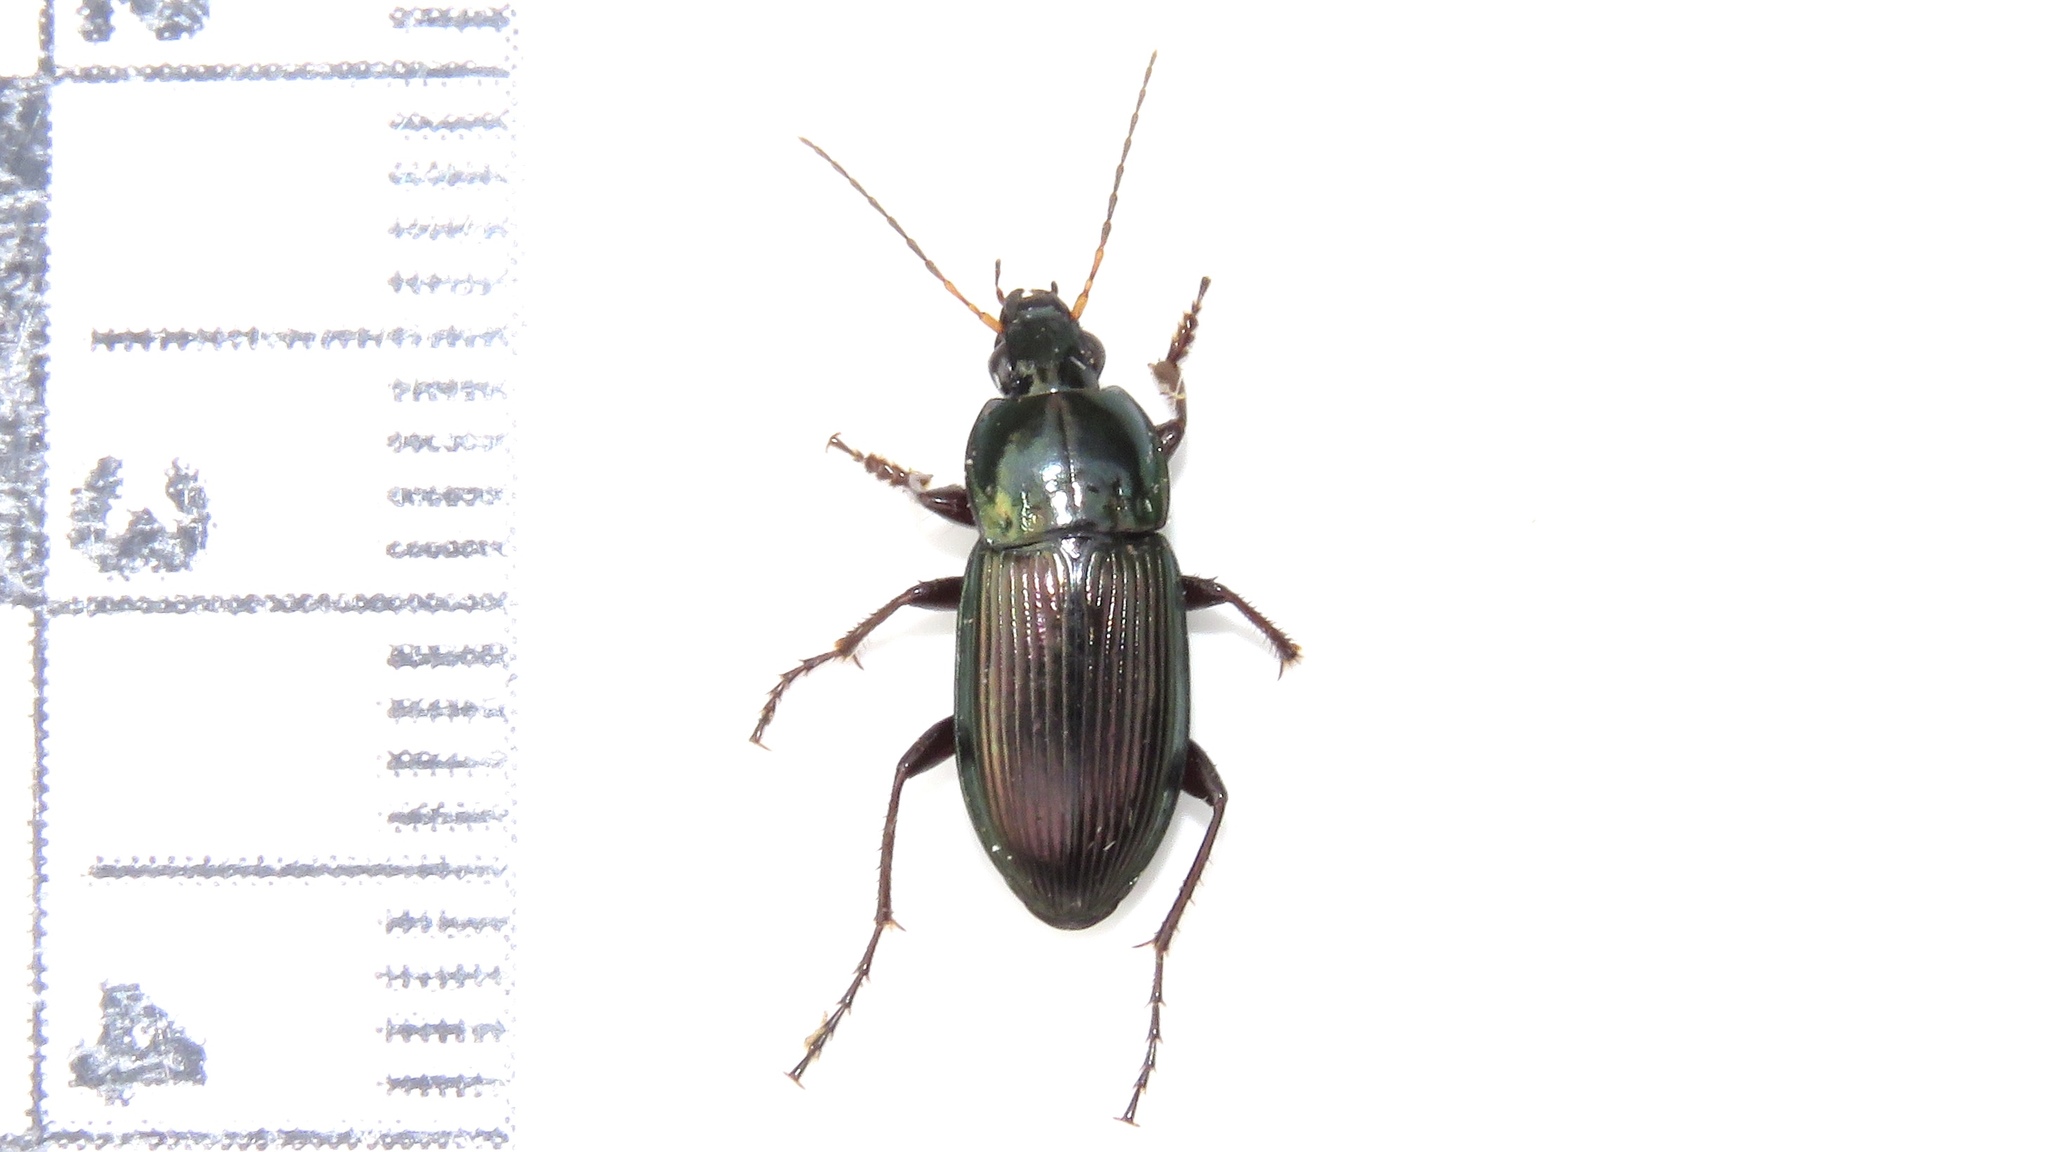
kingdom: Animalia
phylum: Arthropoda
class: Insecta
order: Coleoptera
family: Carabidae
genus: Poecilus
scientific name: Poecilus lucublandus
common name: Woodland ground beetle
